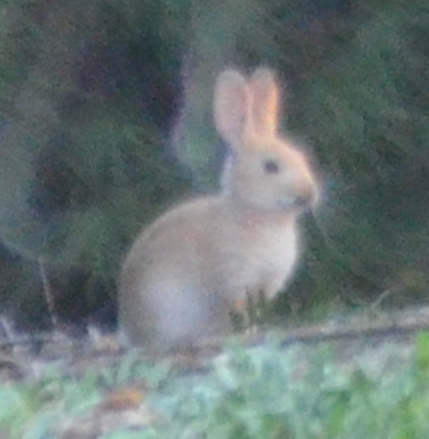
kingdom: Animalia
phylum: Chordata
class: Mammalia
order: Lagomorpha
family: Leporidae
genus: Oryctolagus
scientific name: Oryctolagus cuniculus
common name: European rabbit
